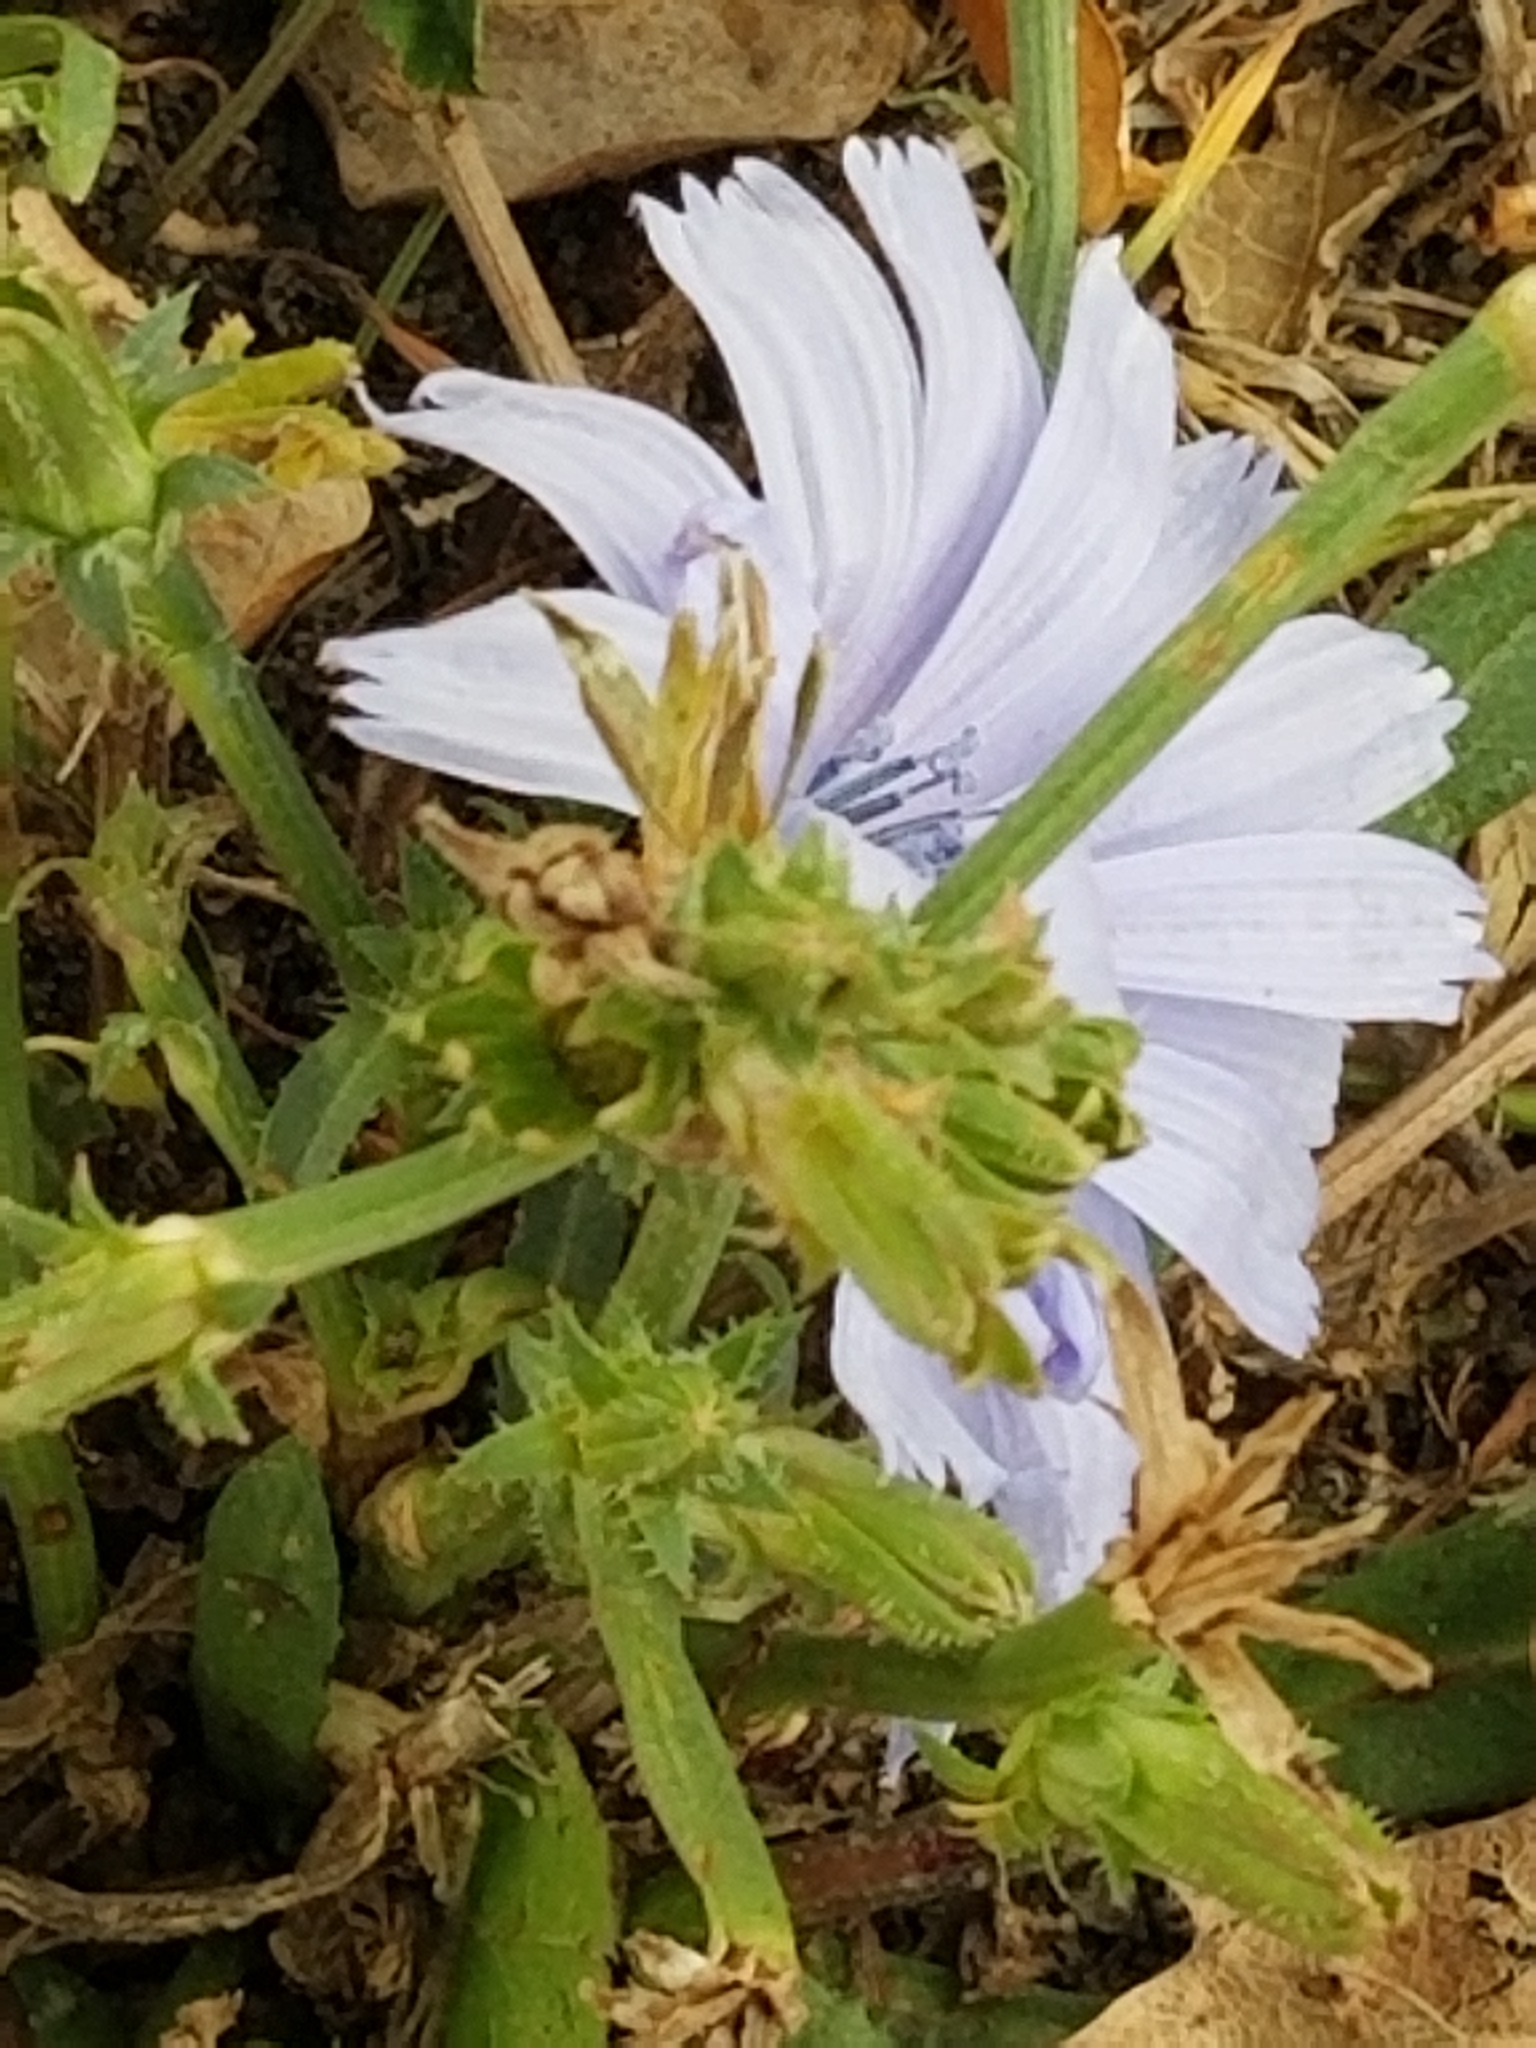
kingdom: Plantae
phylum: Tracheophyta
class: Magnoliopsida
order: Asterales
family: Asteraceae
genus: Cichorium
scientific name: Cichorium intybus
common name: Chicory
